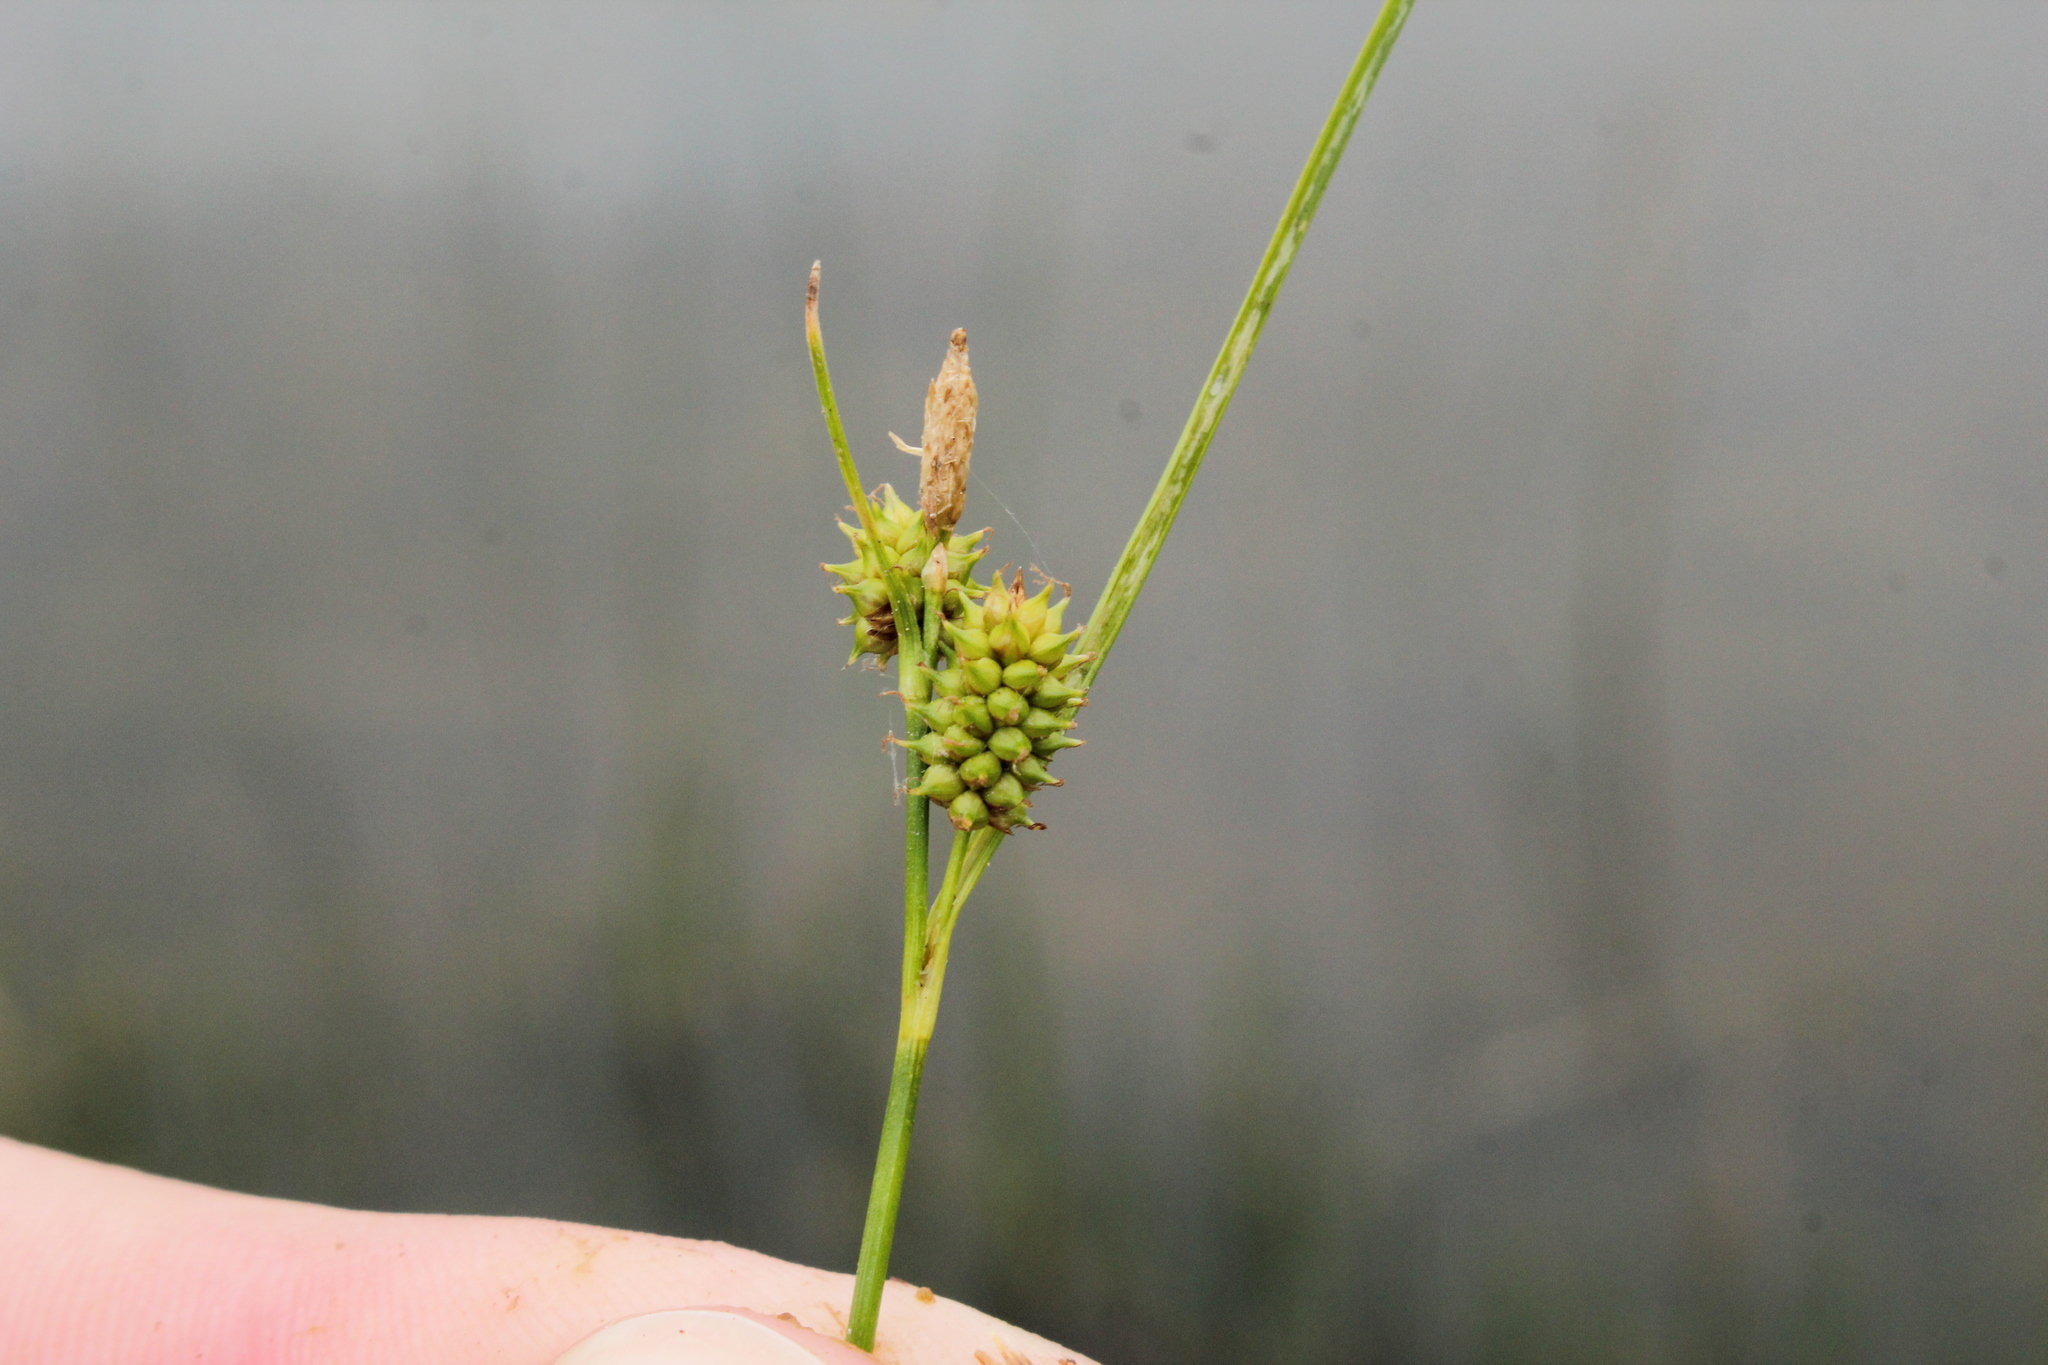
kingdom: Plantae
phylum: Tracheophyta
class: Liliopsida
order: Poales
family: Cyperaceae
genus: Carex
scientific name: Carex
